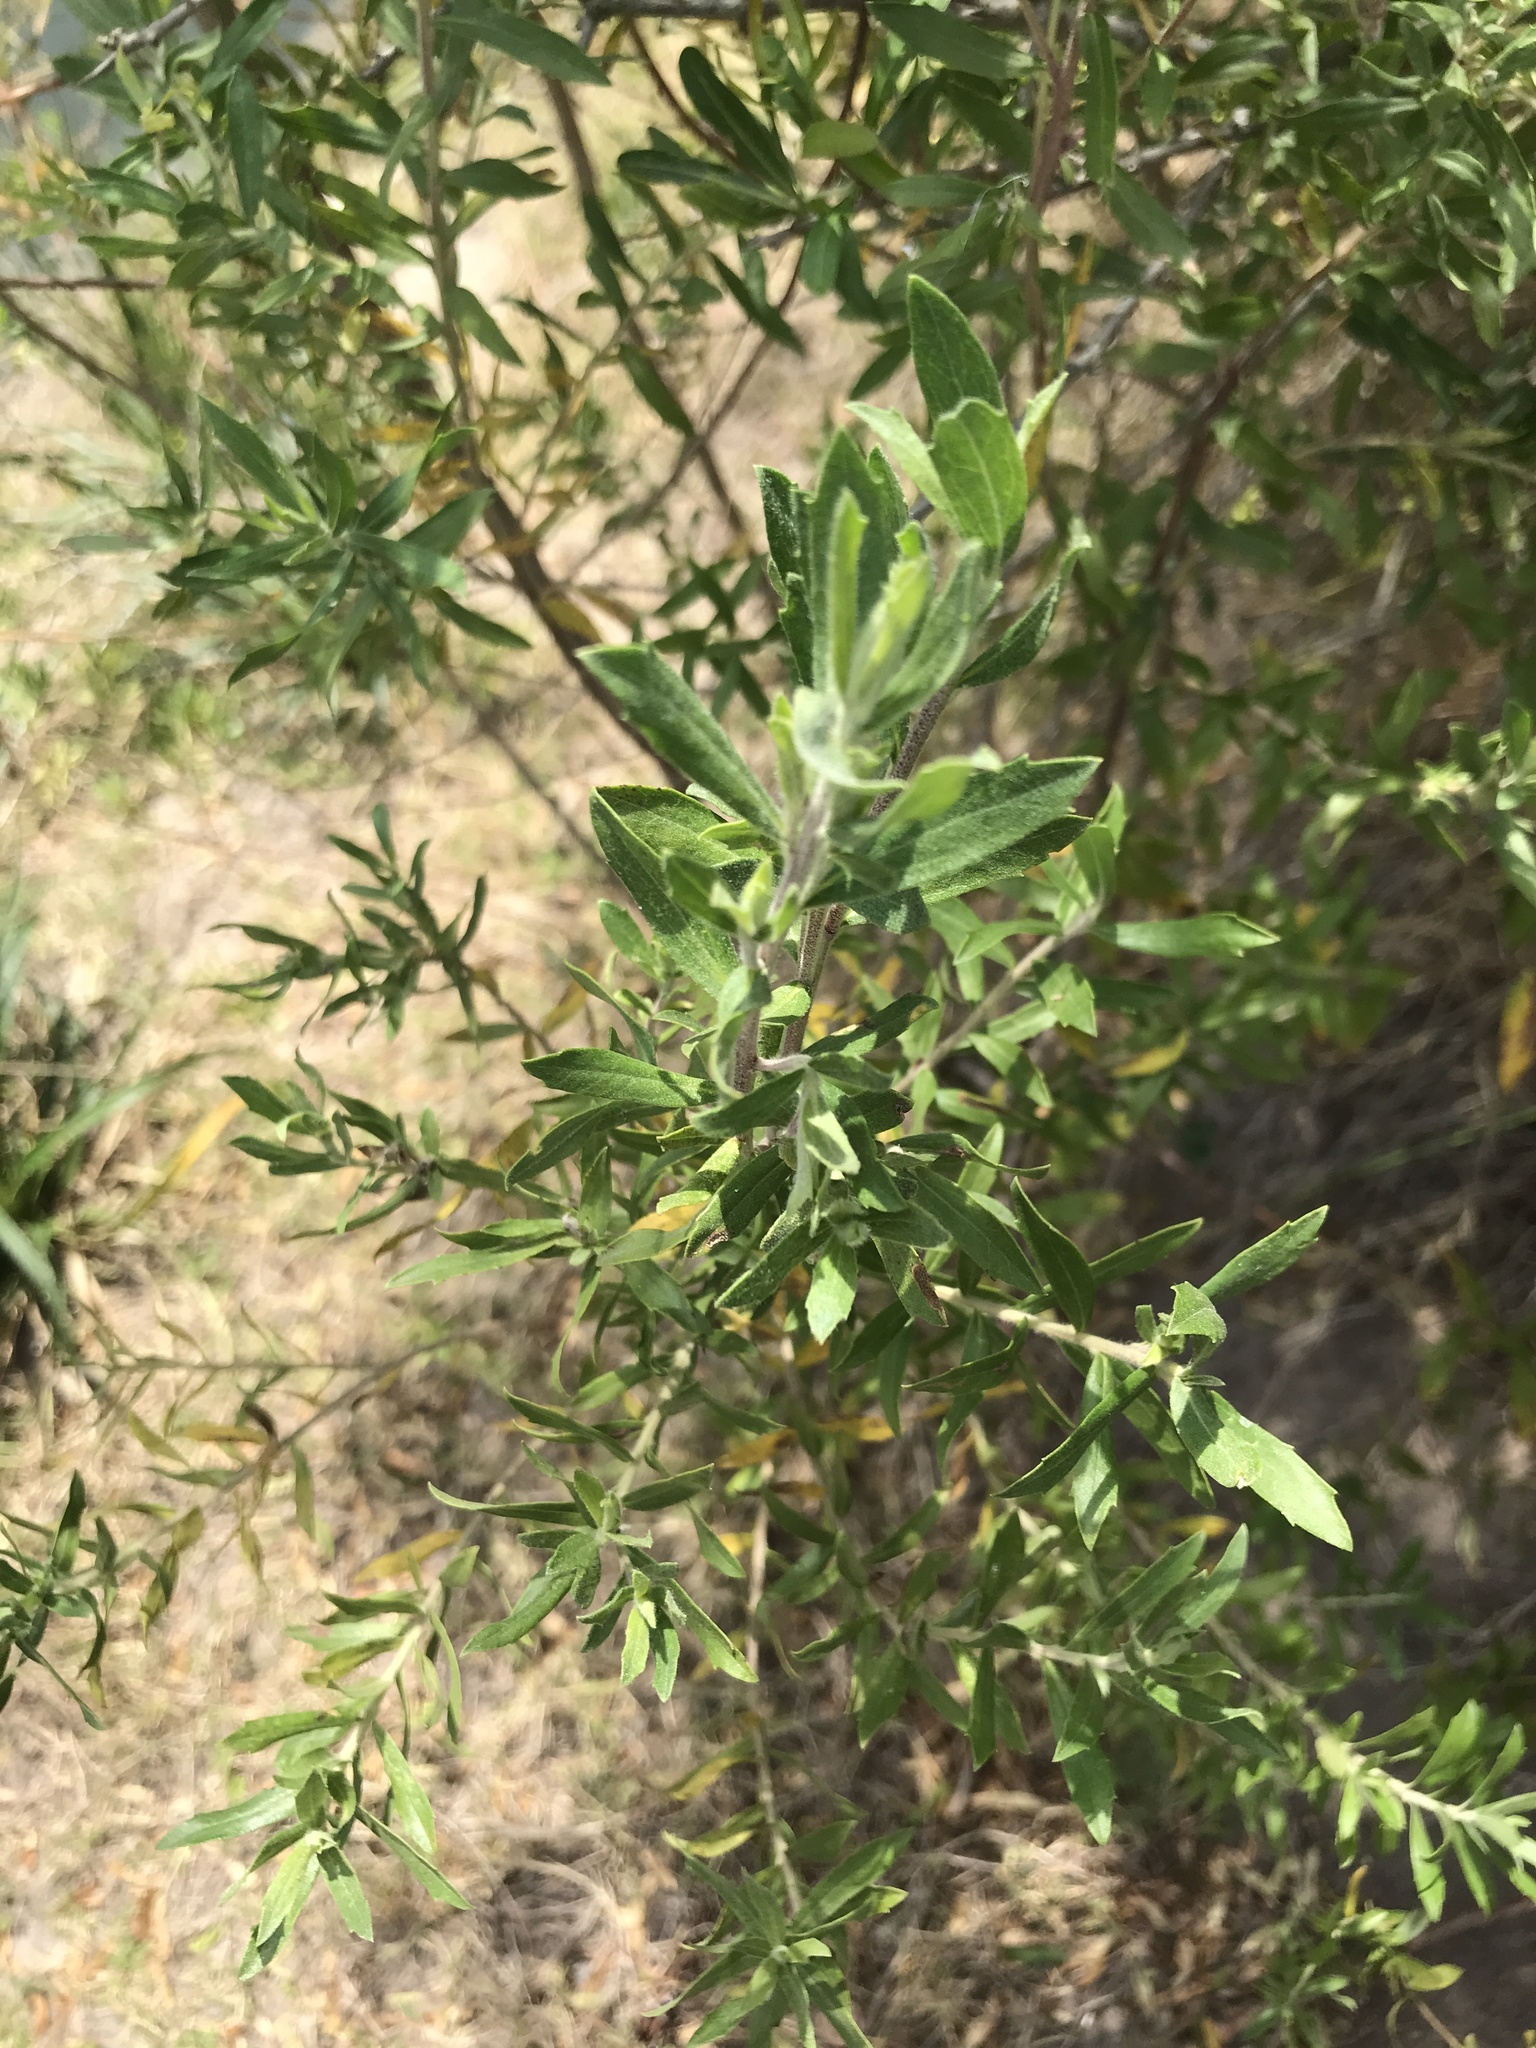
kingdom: Plantae
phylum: Tracheophyta
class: Magnoliopsida
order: Asterales
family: Asteraceae
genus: Baccharis
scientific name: Baccharis dracunculifolia
